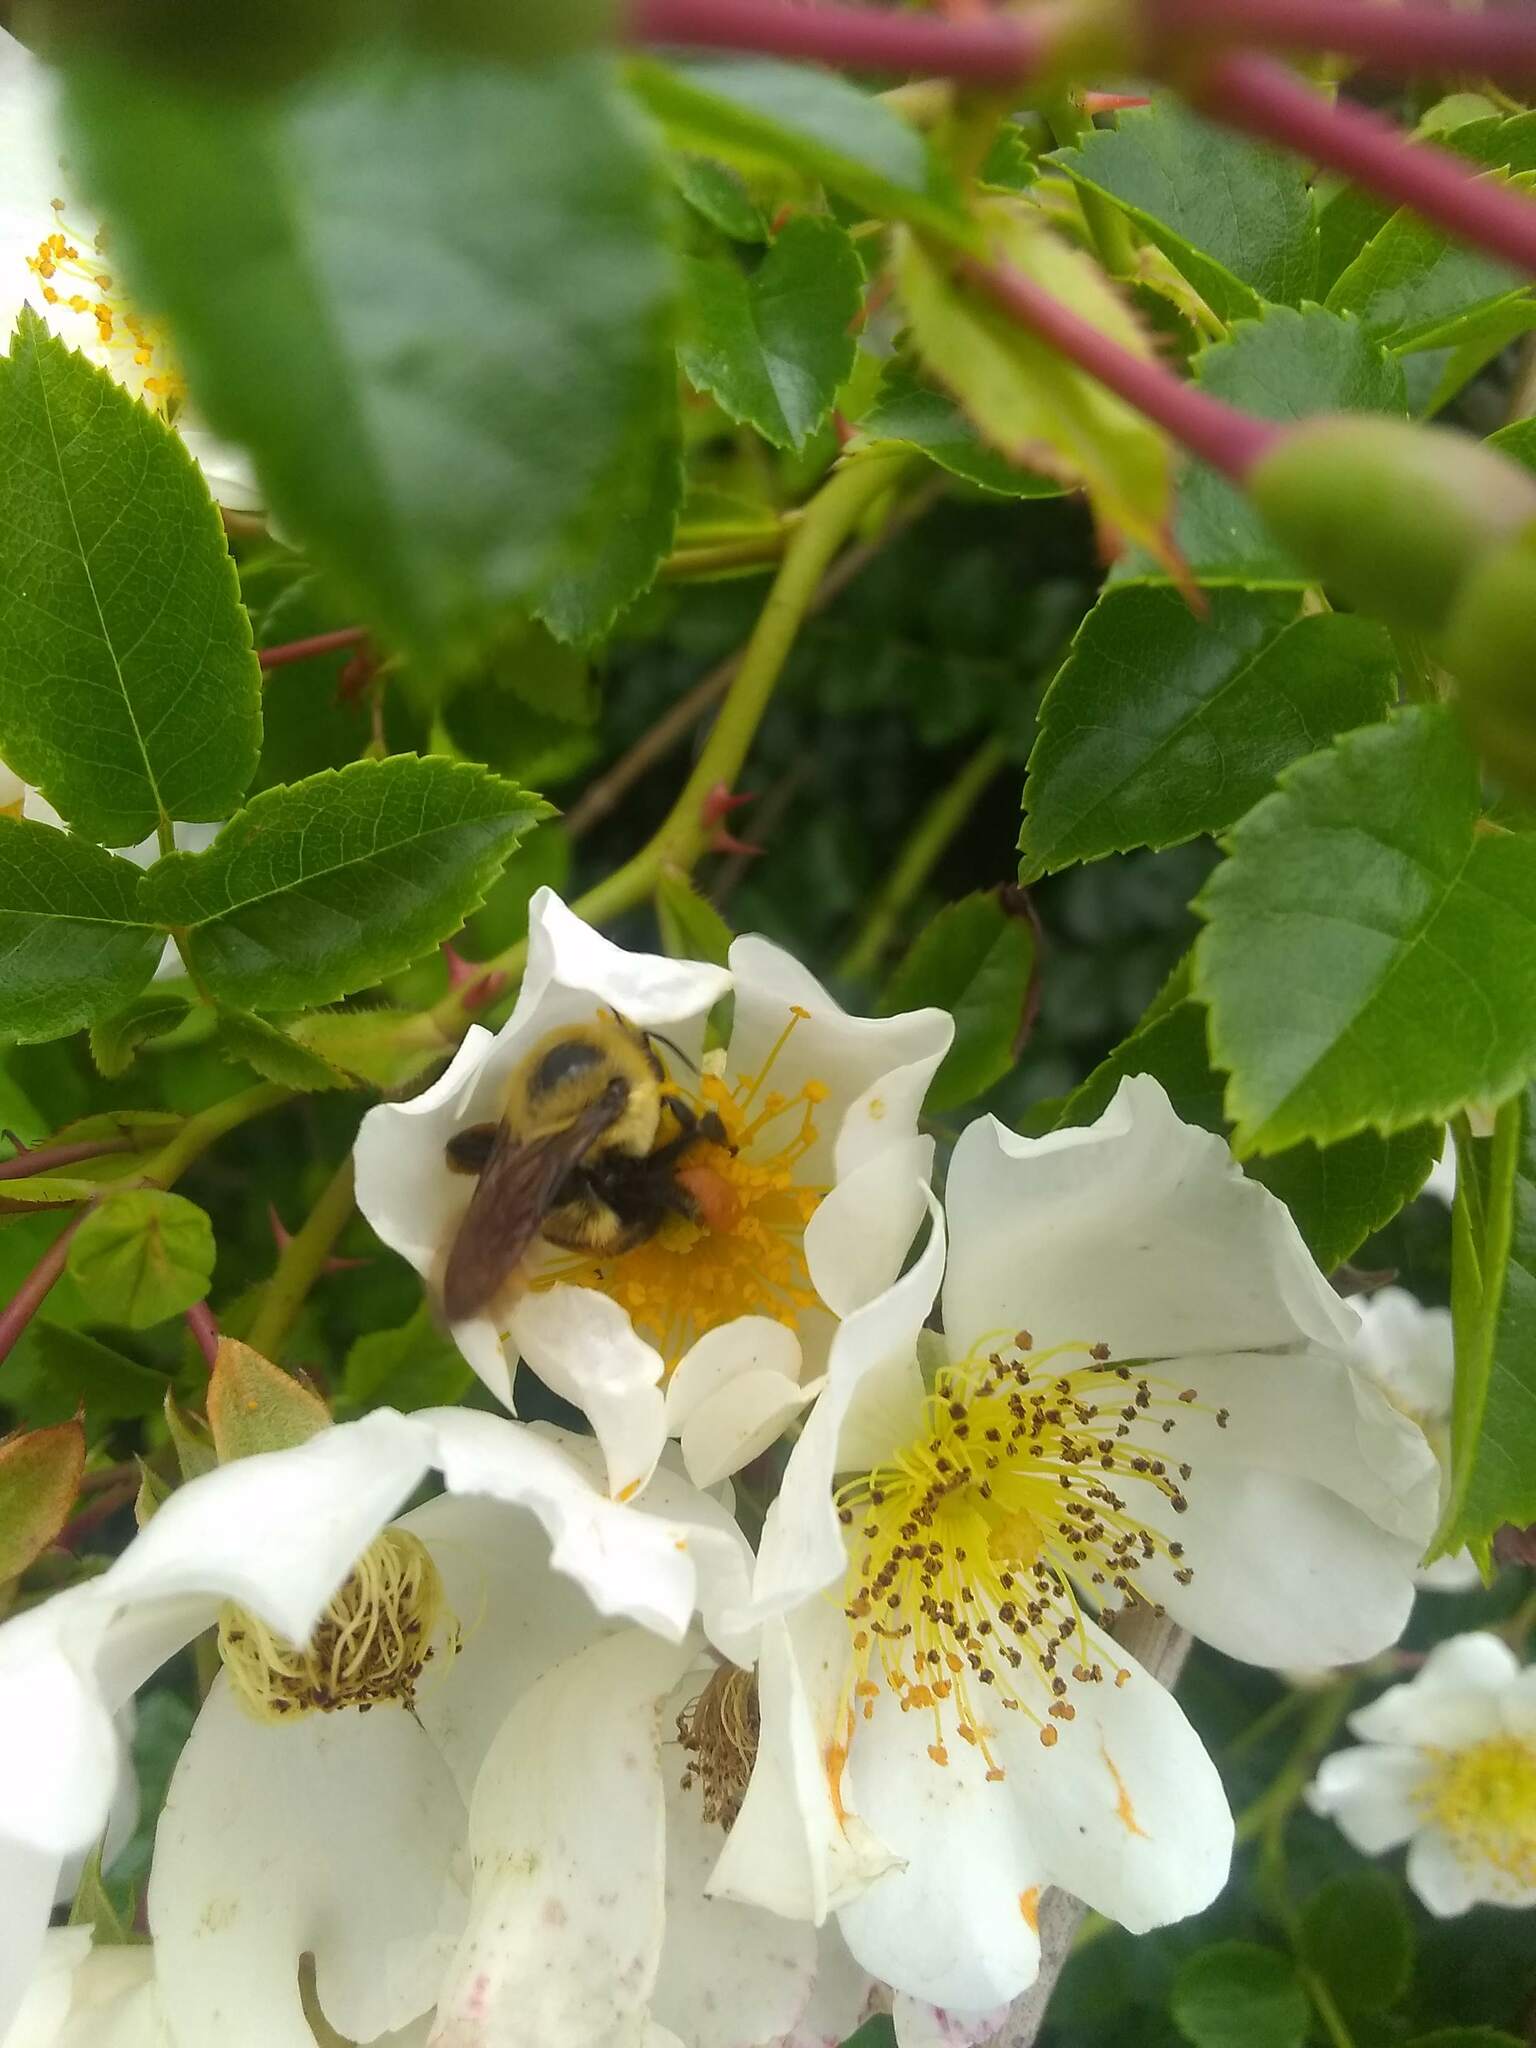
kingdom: Animalia
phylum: Arthropoda
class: Insecta
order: Hymenoptera
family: Apidae
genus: Bombus
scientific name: Bombus griseocollis
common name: Brown-belted bumble bee
